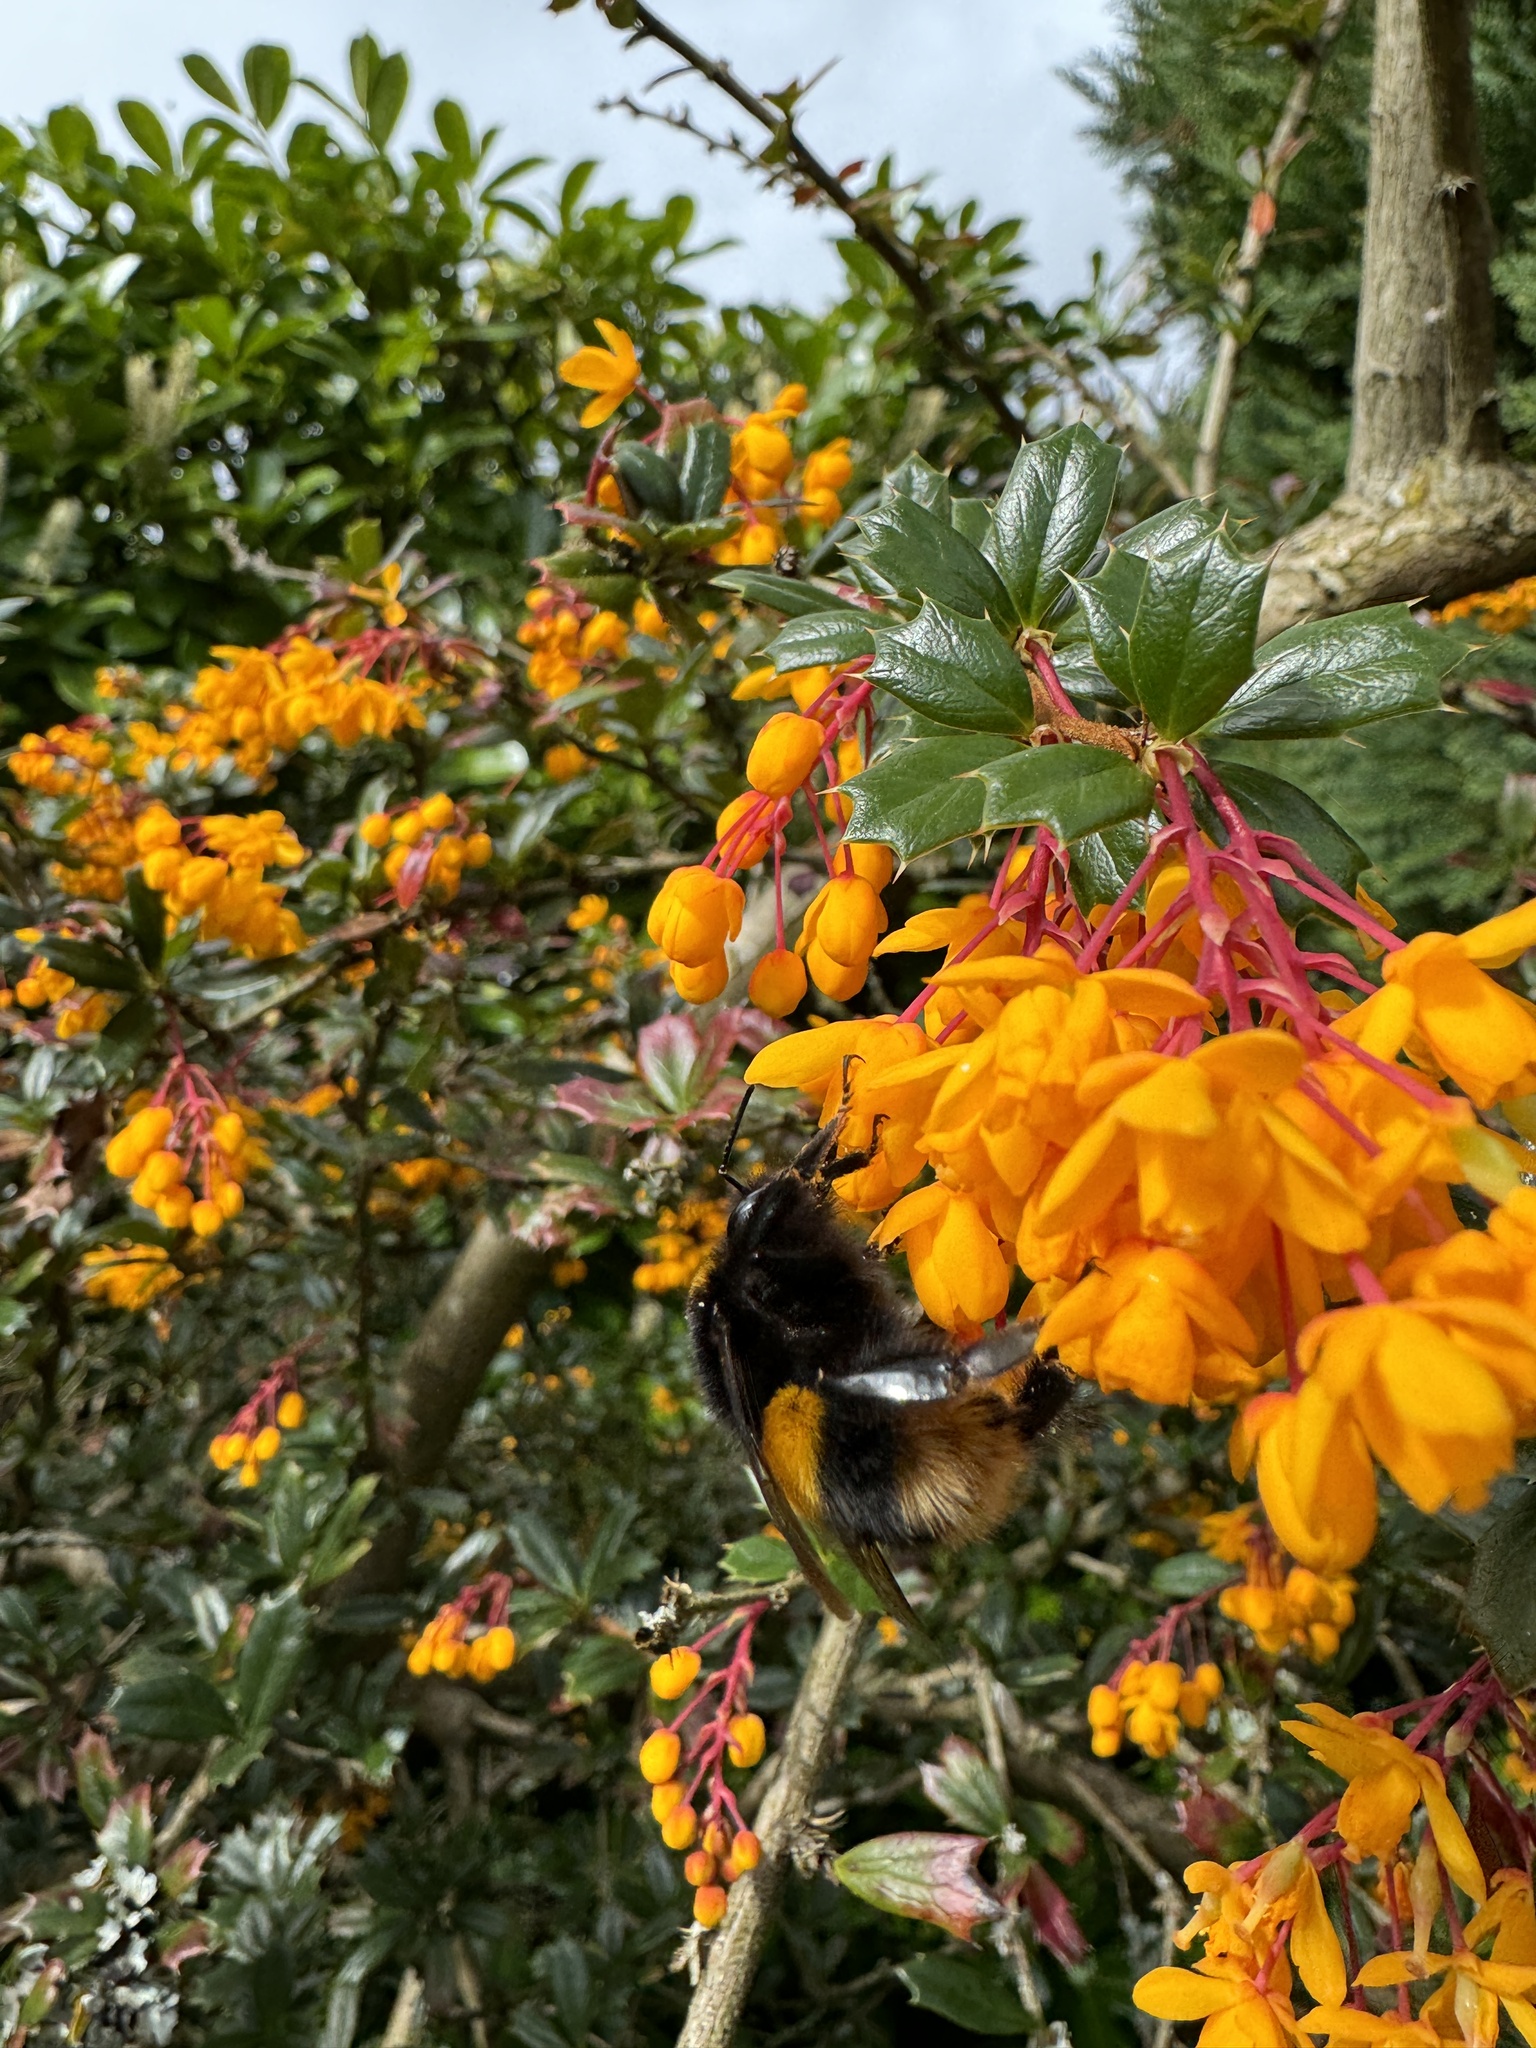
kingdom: Animalia
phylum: Arthropoda
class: Insecta
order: Hymenoptera
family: Apidae
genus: Bombus
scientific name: Bombus terrestris
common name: Buff-tailed bumblebee
